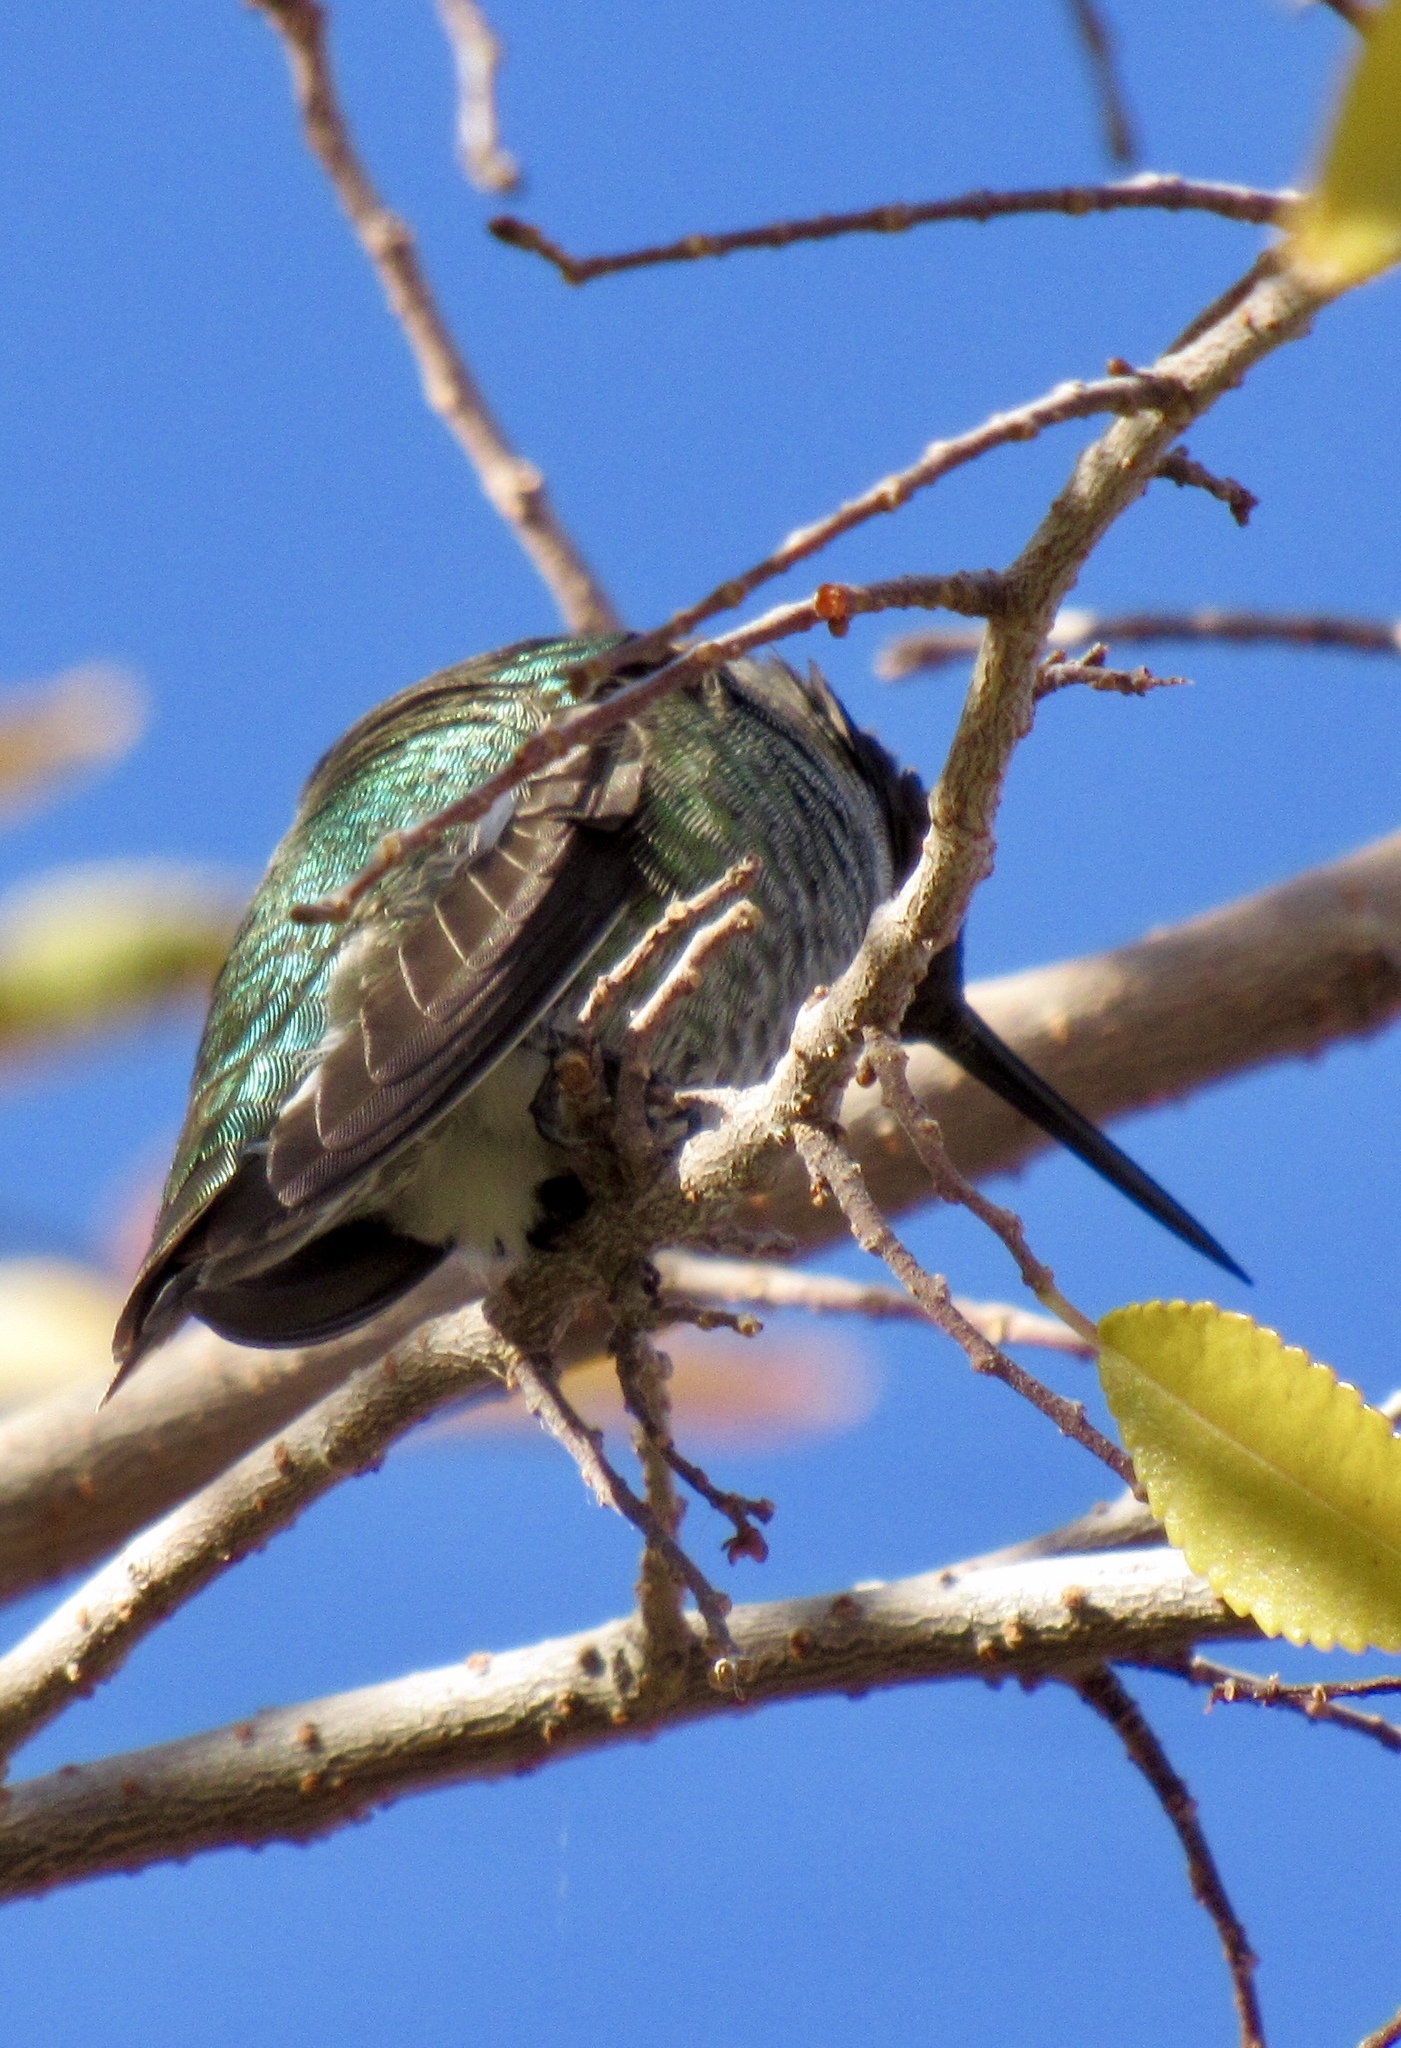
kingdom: Animalia
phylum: Chordata
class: Aves
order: Apodiformes
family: Trochilidae
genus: Calypte
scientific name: Calypte anna
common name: Anna's hummingbird
